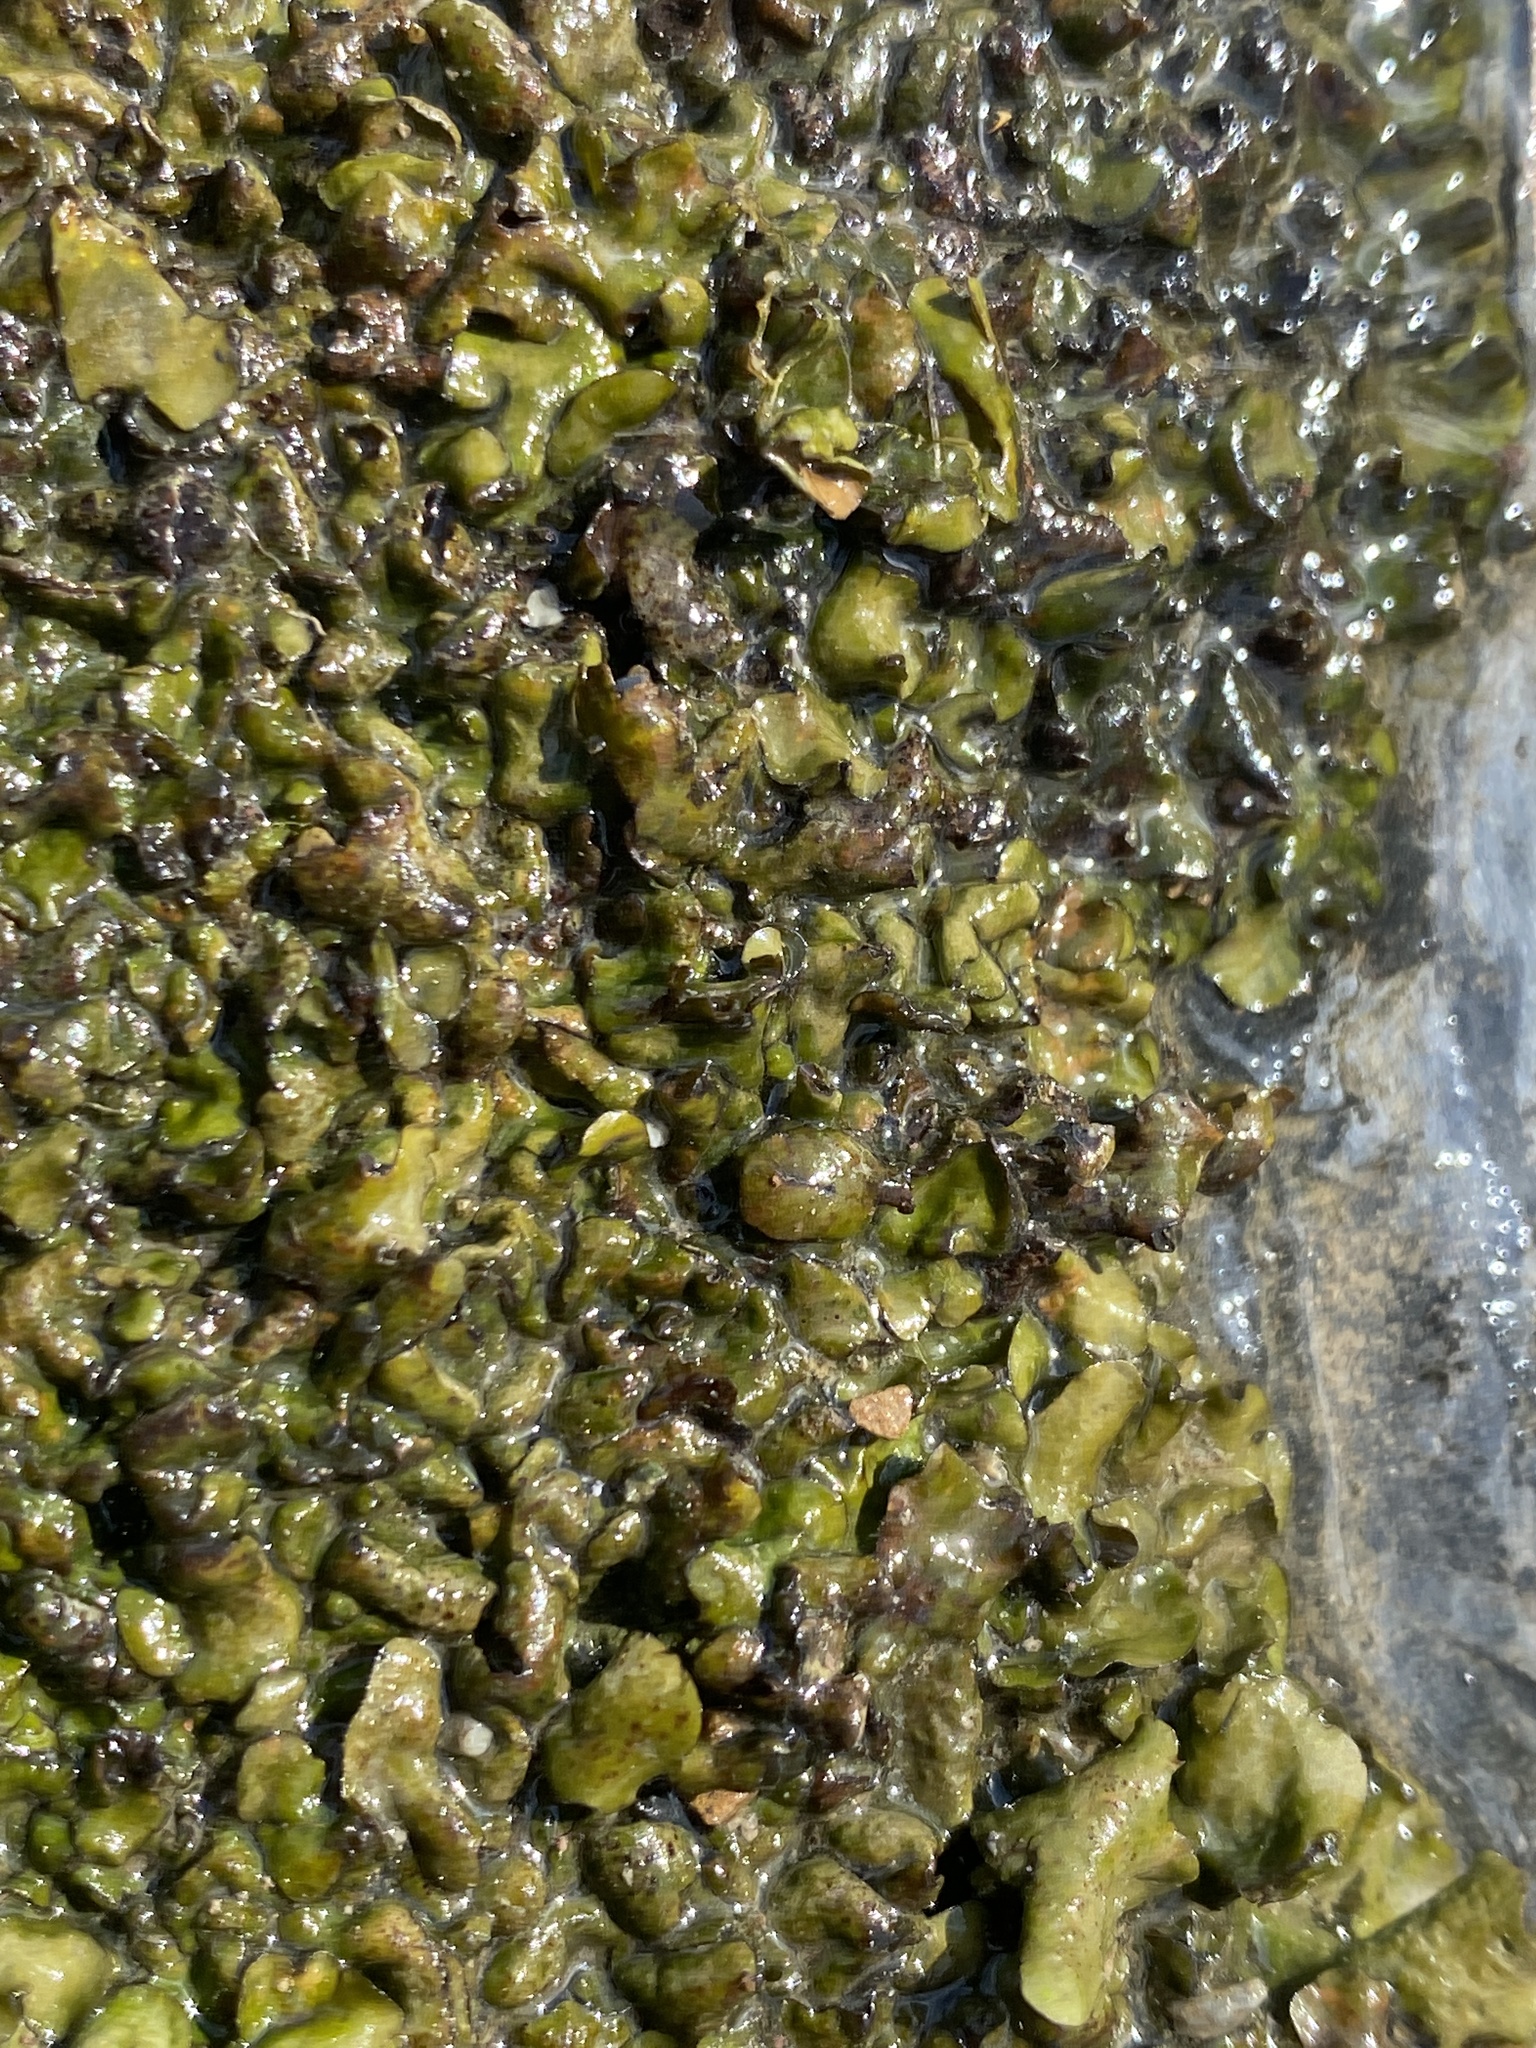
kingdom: Fungi
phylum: Ascomycota
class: Eurotiomycetes
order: Verrucariales
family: Verrucariaceae
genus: Dermatocarpon
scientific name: Dermatocarpon luridum
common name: Brook stippleback lichen
